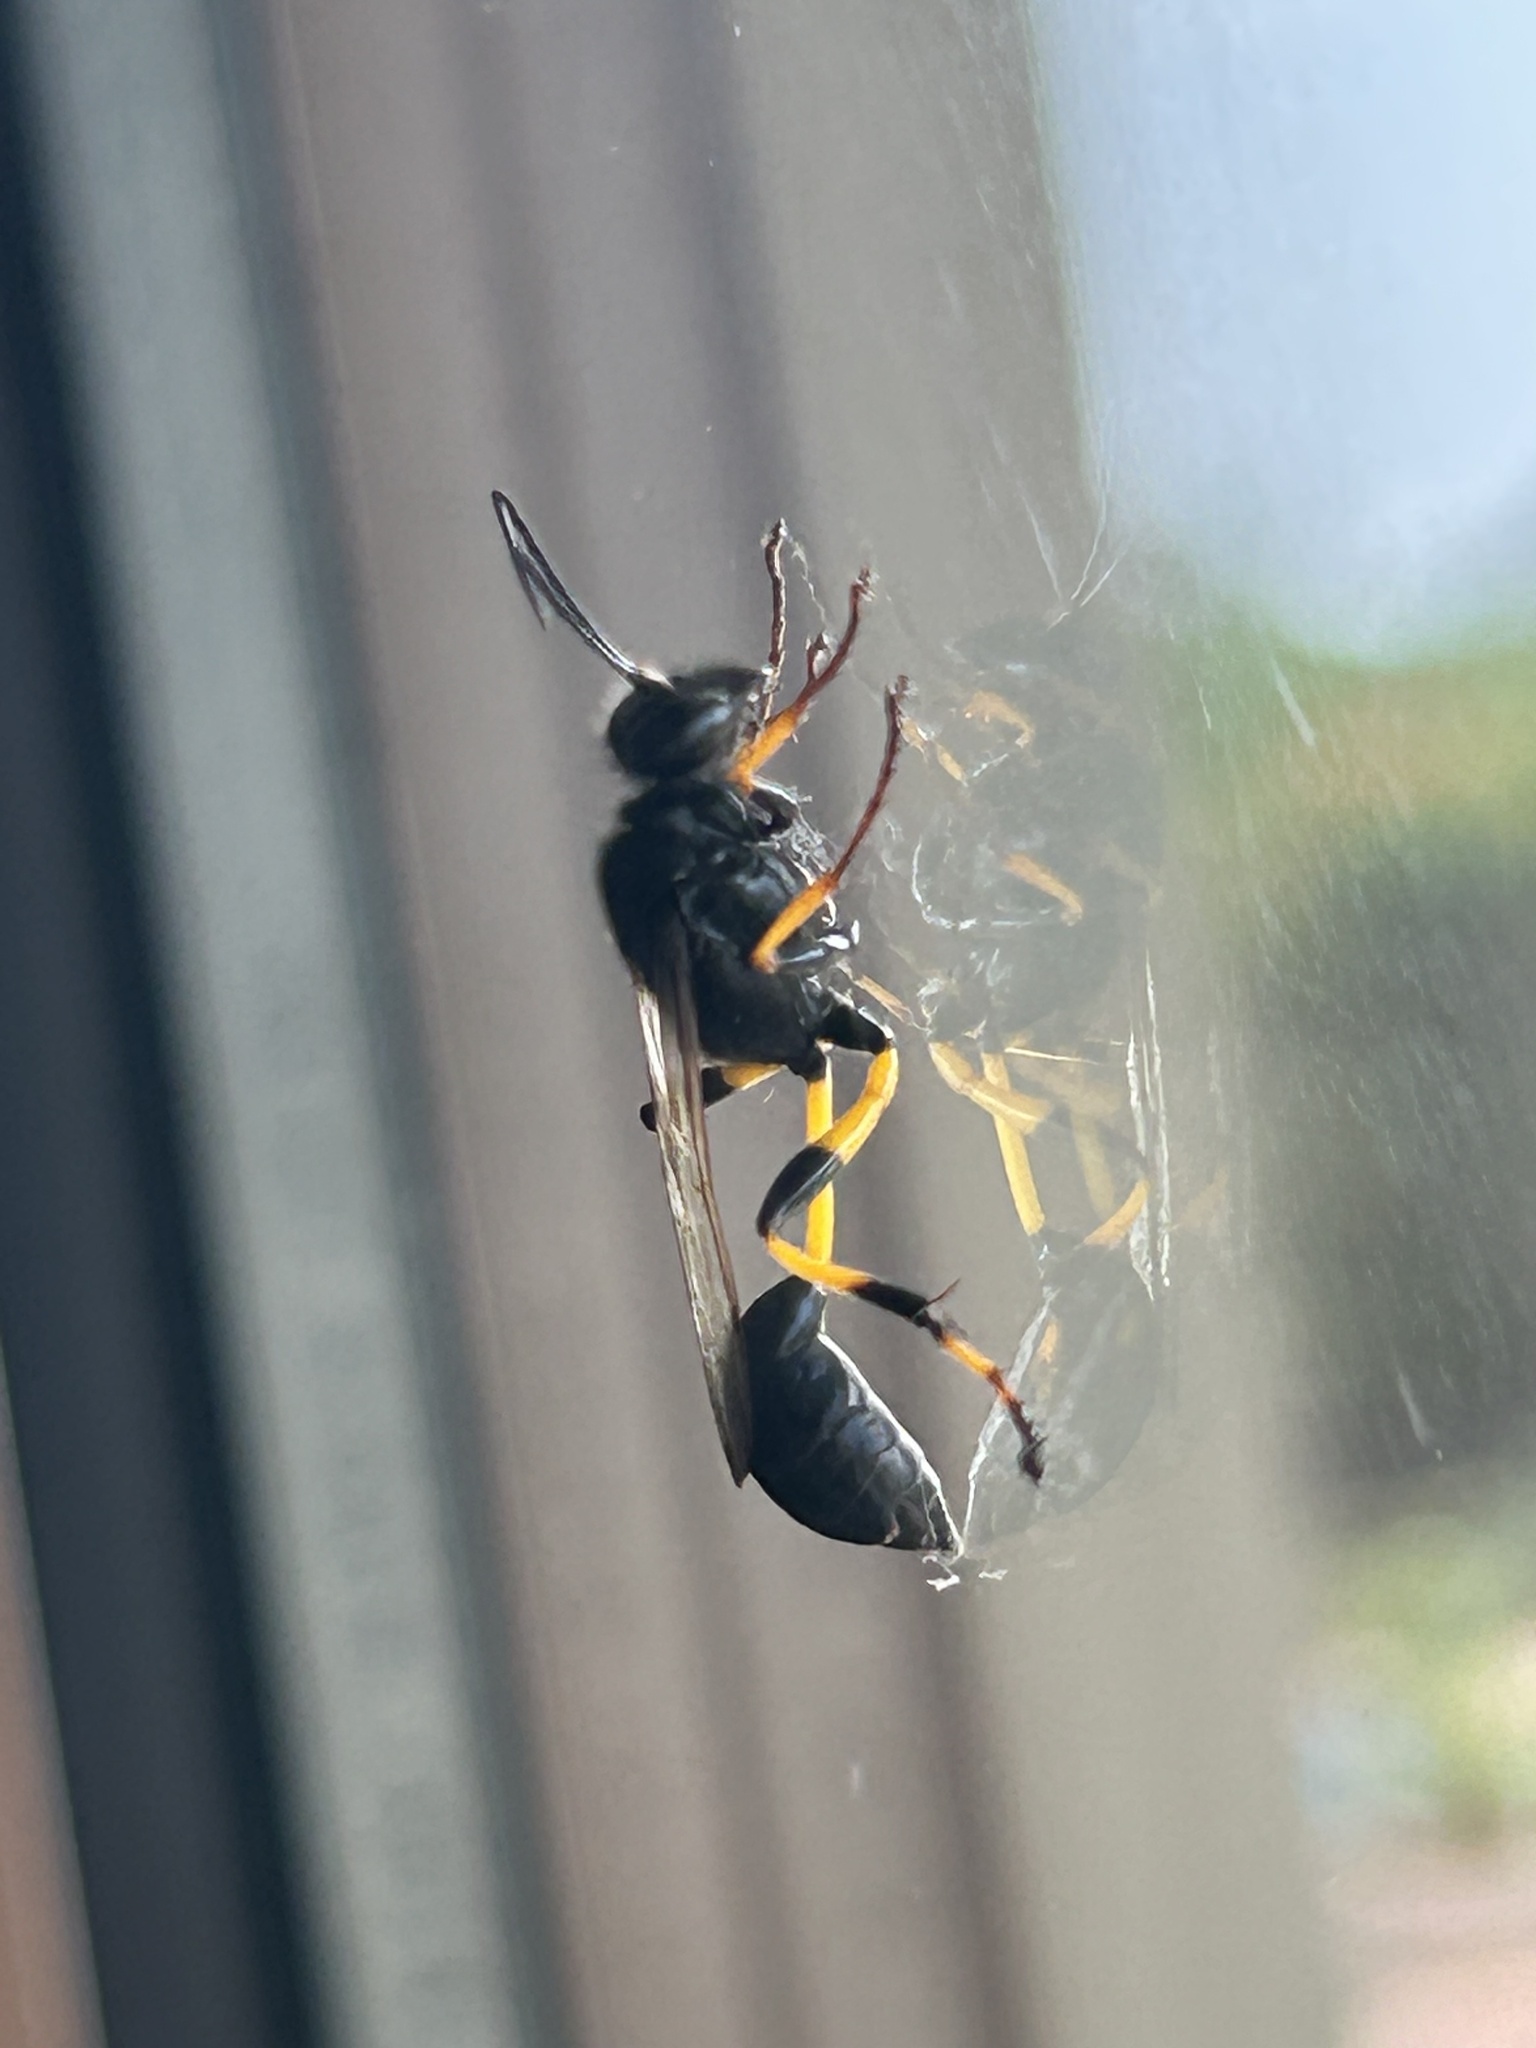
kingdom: Animalia
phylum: Arthropoda
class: Insecta
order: Hymenoptera
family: Sphecidae
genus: Sceliphron
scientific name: Sceliphron spirifex
